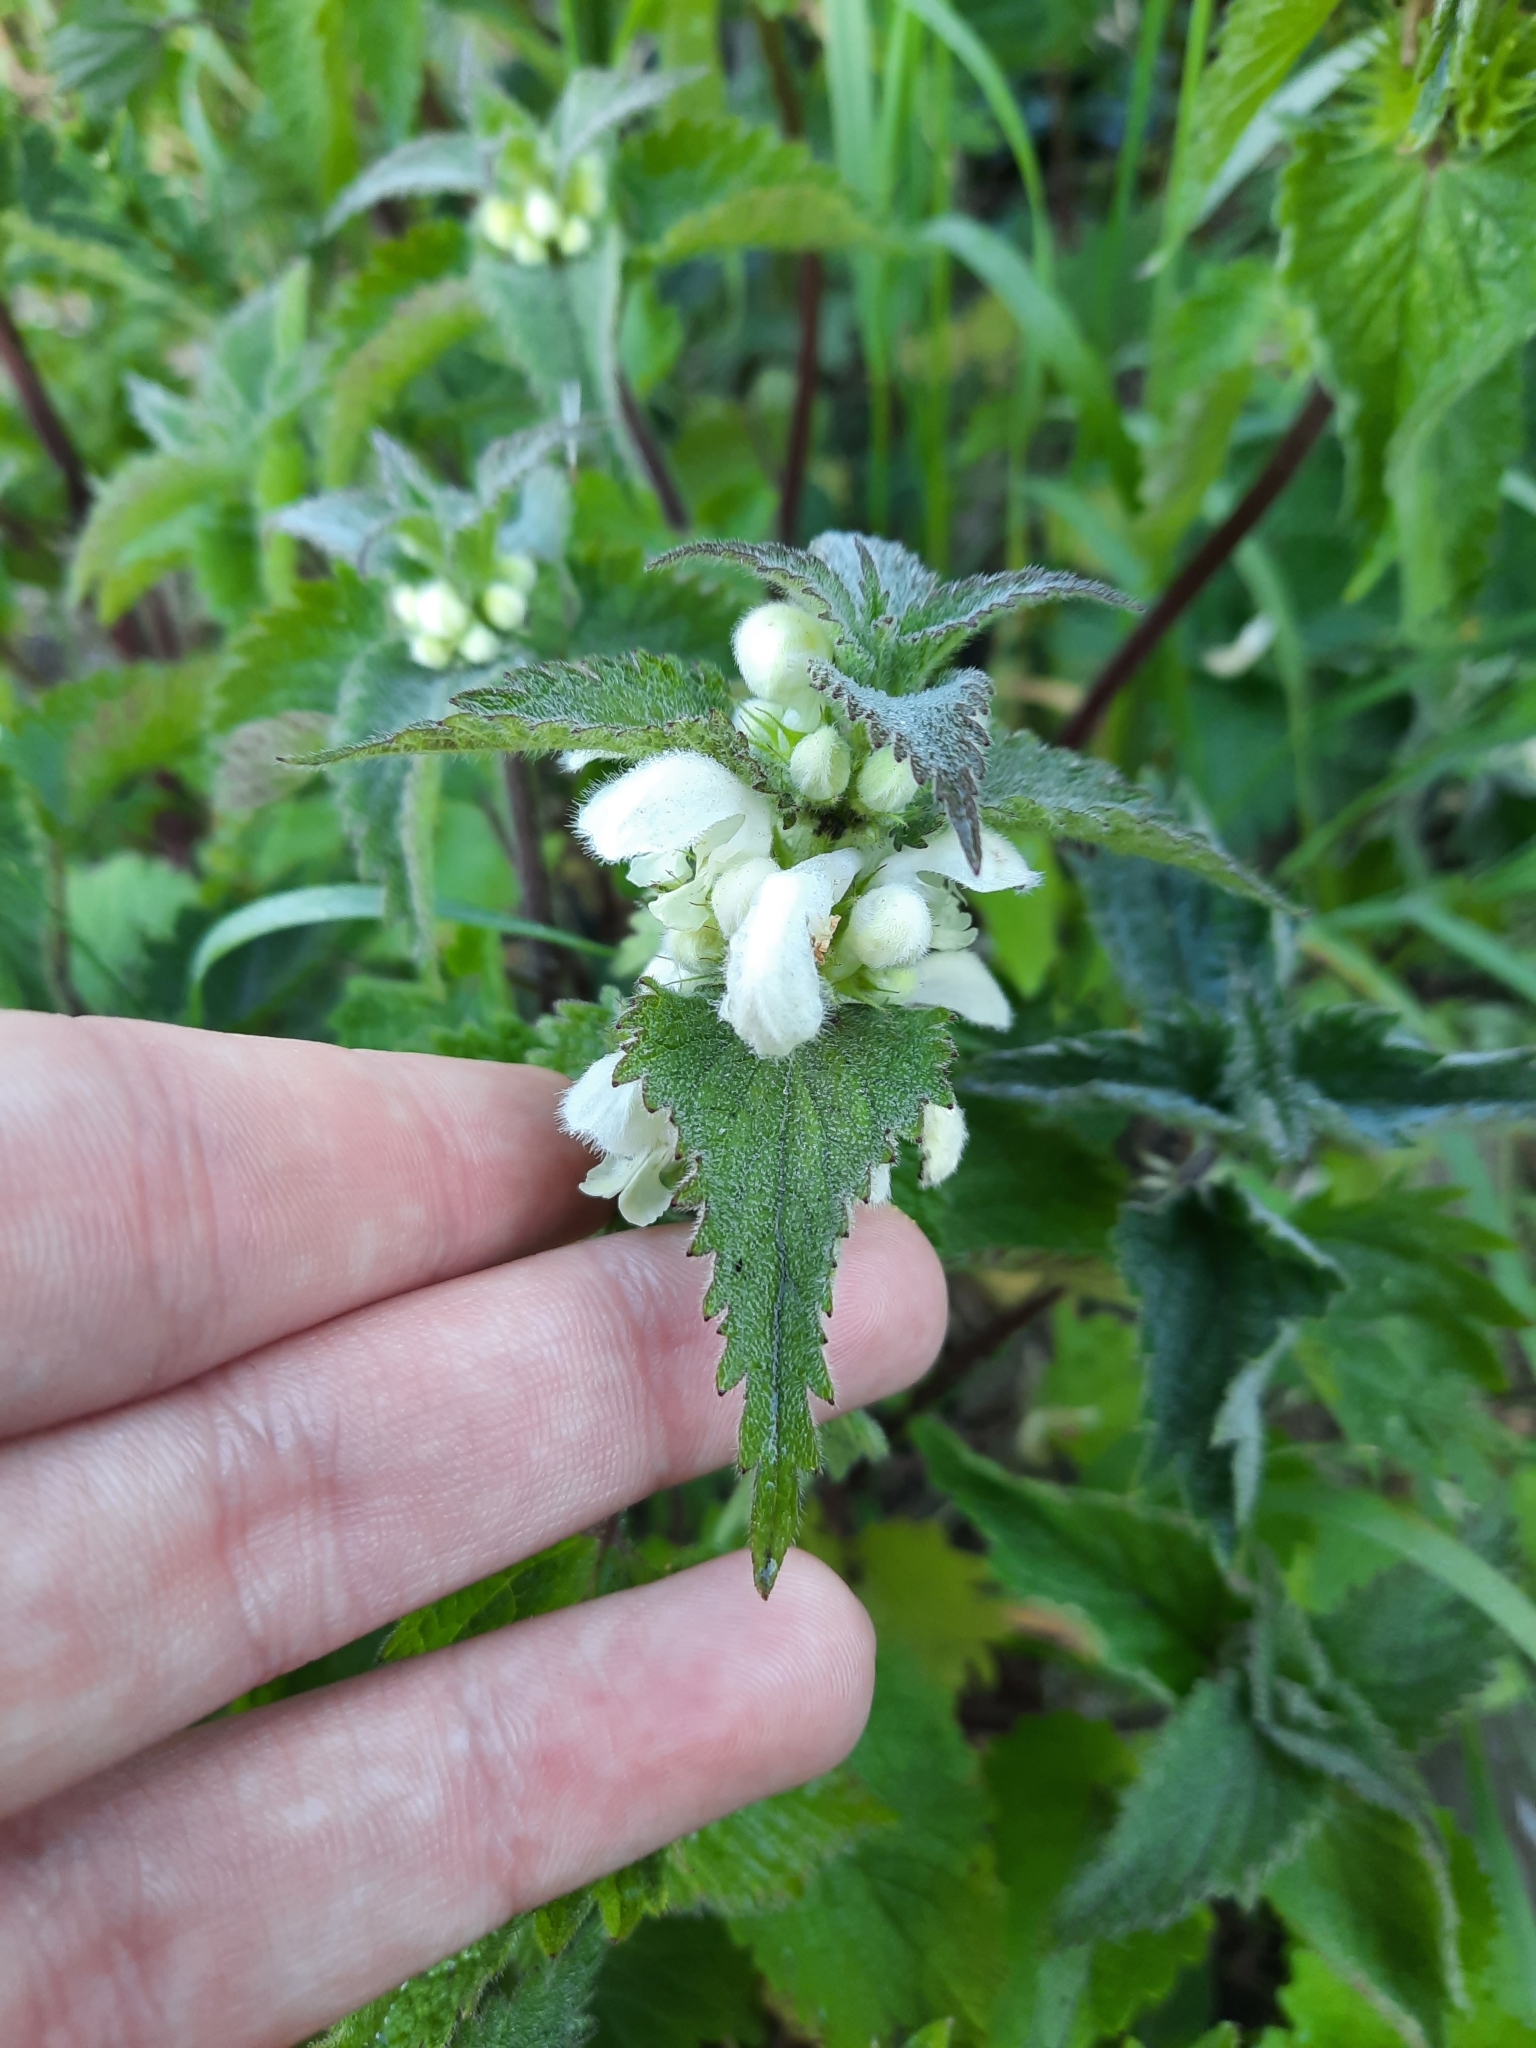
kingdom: Plantae
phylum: Tracheophyta
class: Magnoliopsida
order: Lamiales
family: Lamiaceae
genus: Lamium
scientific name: Lamium album
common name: White dead-nettle
